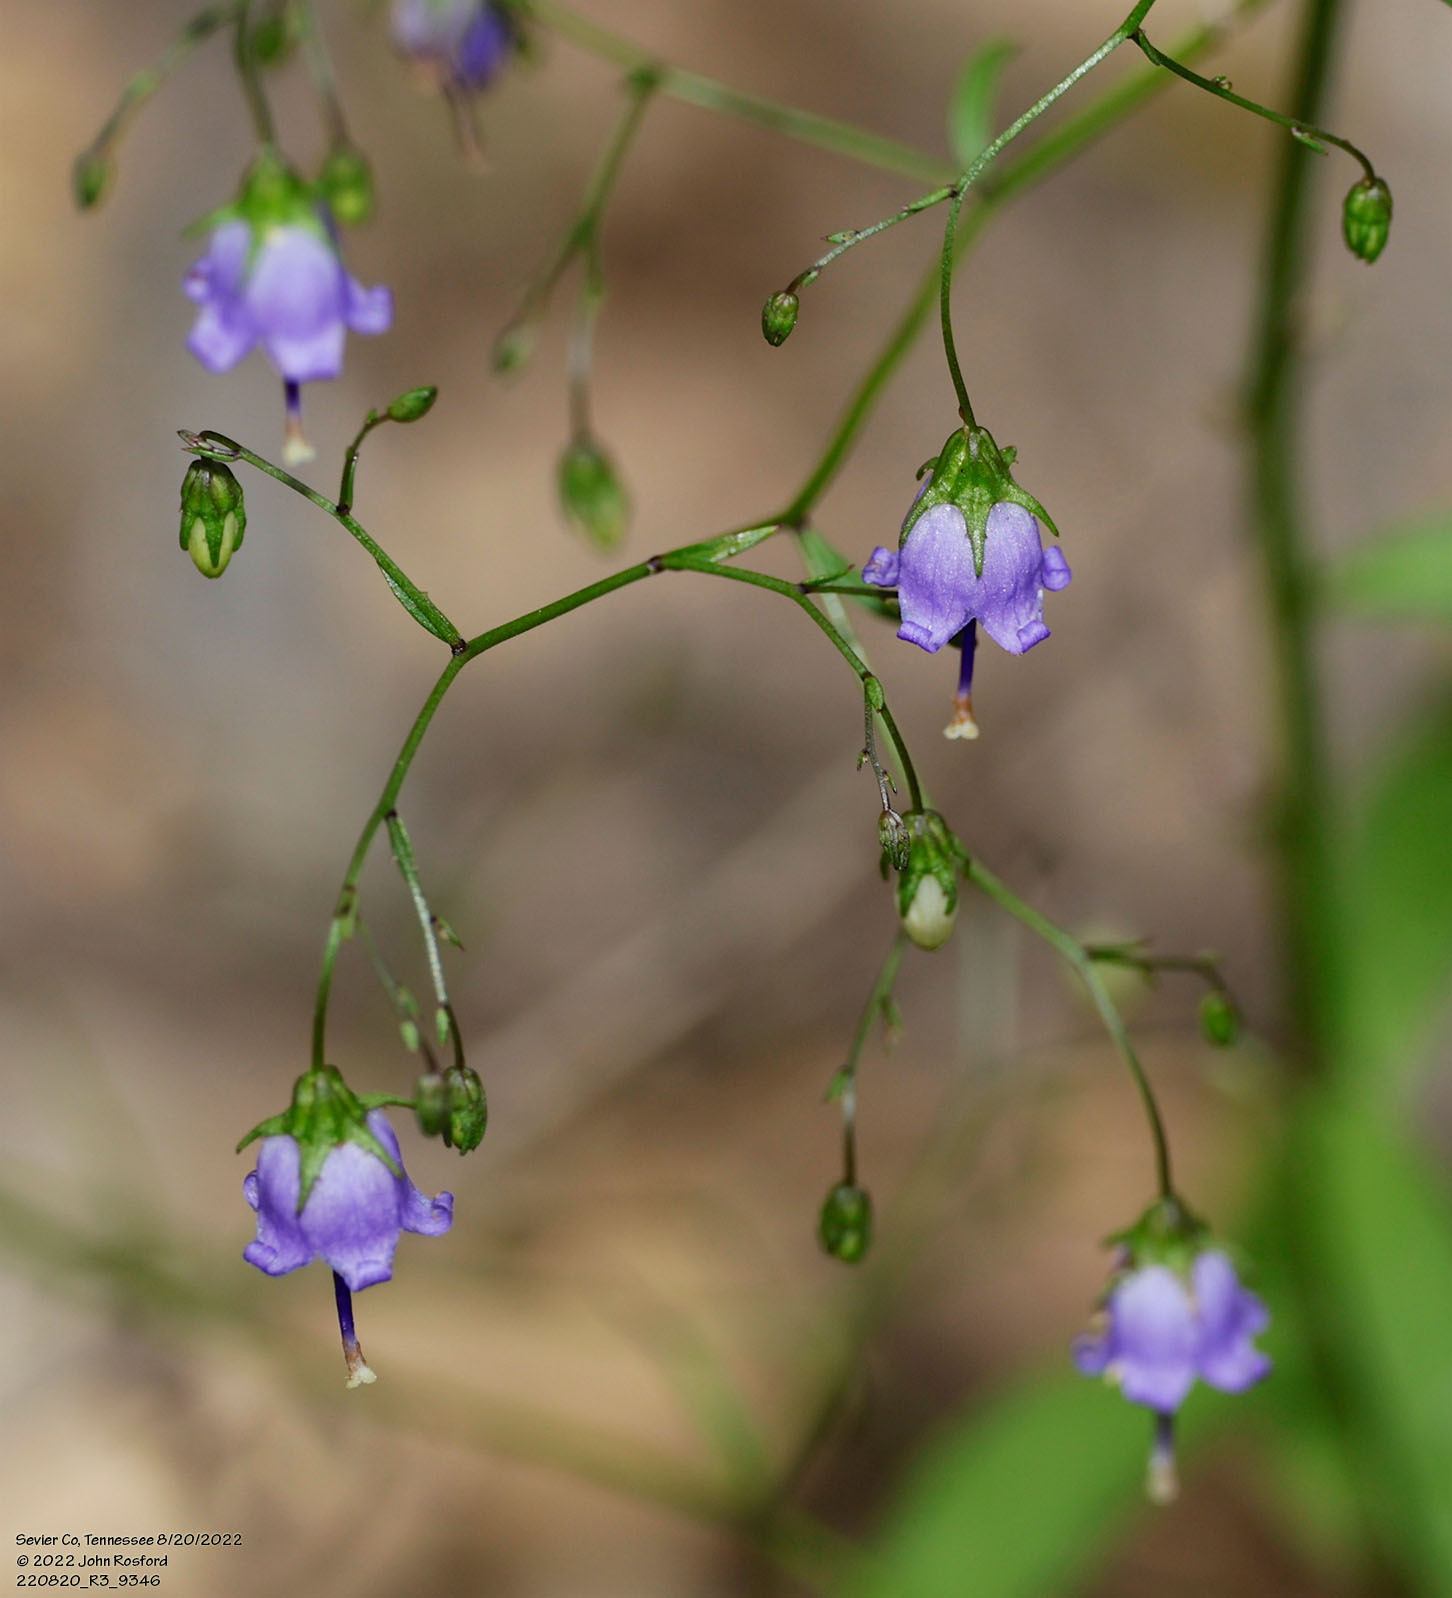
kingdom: Plantae
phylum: Tracheophyta
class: Magnoliopsida
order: Asterales
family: Campanulaceae
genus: Campanula
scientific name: Campanula divaricata
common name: Appalachian bellflower
